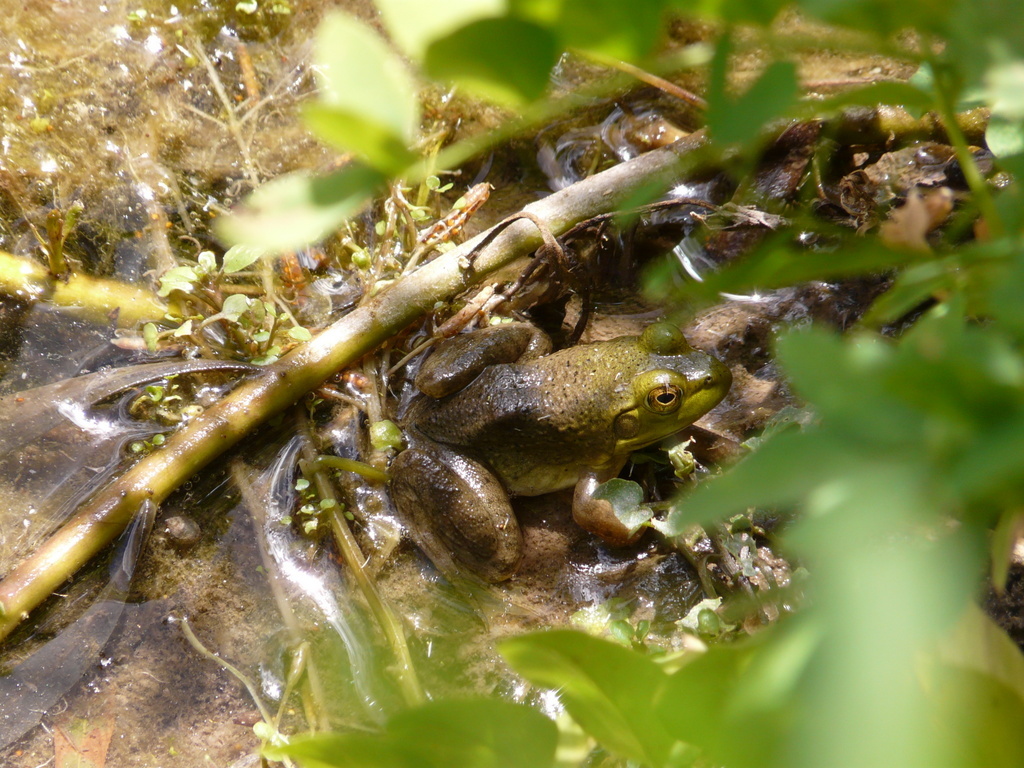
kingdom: Animalia
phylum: Chordata
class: Amphibia
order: Anura
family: Ranidae
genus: Lithobates
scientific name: Lithobates catesbeianus
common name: American bullfrog
